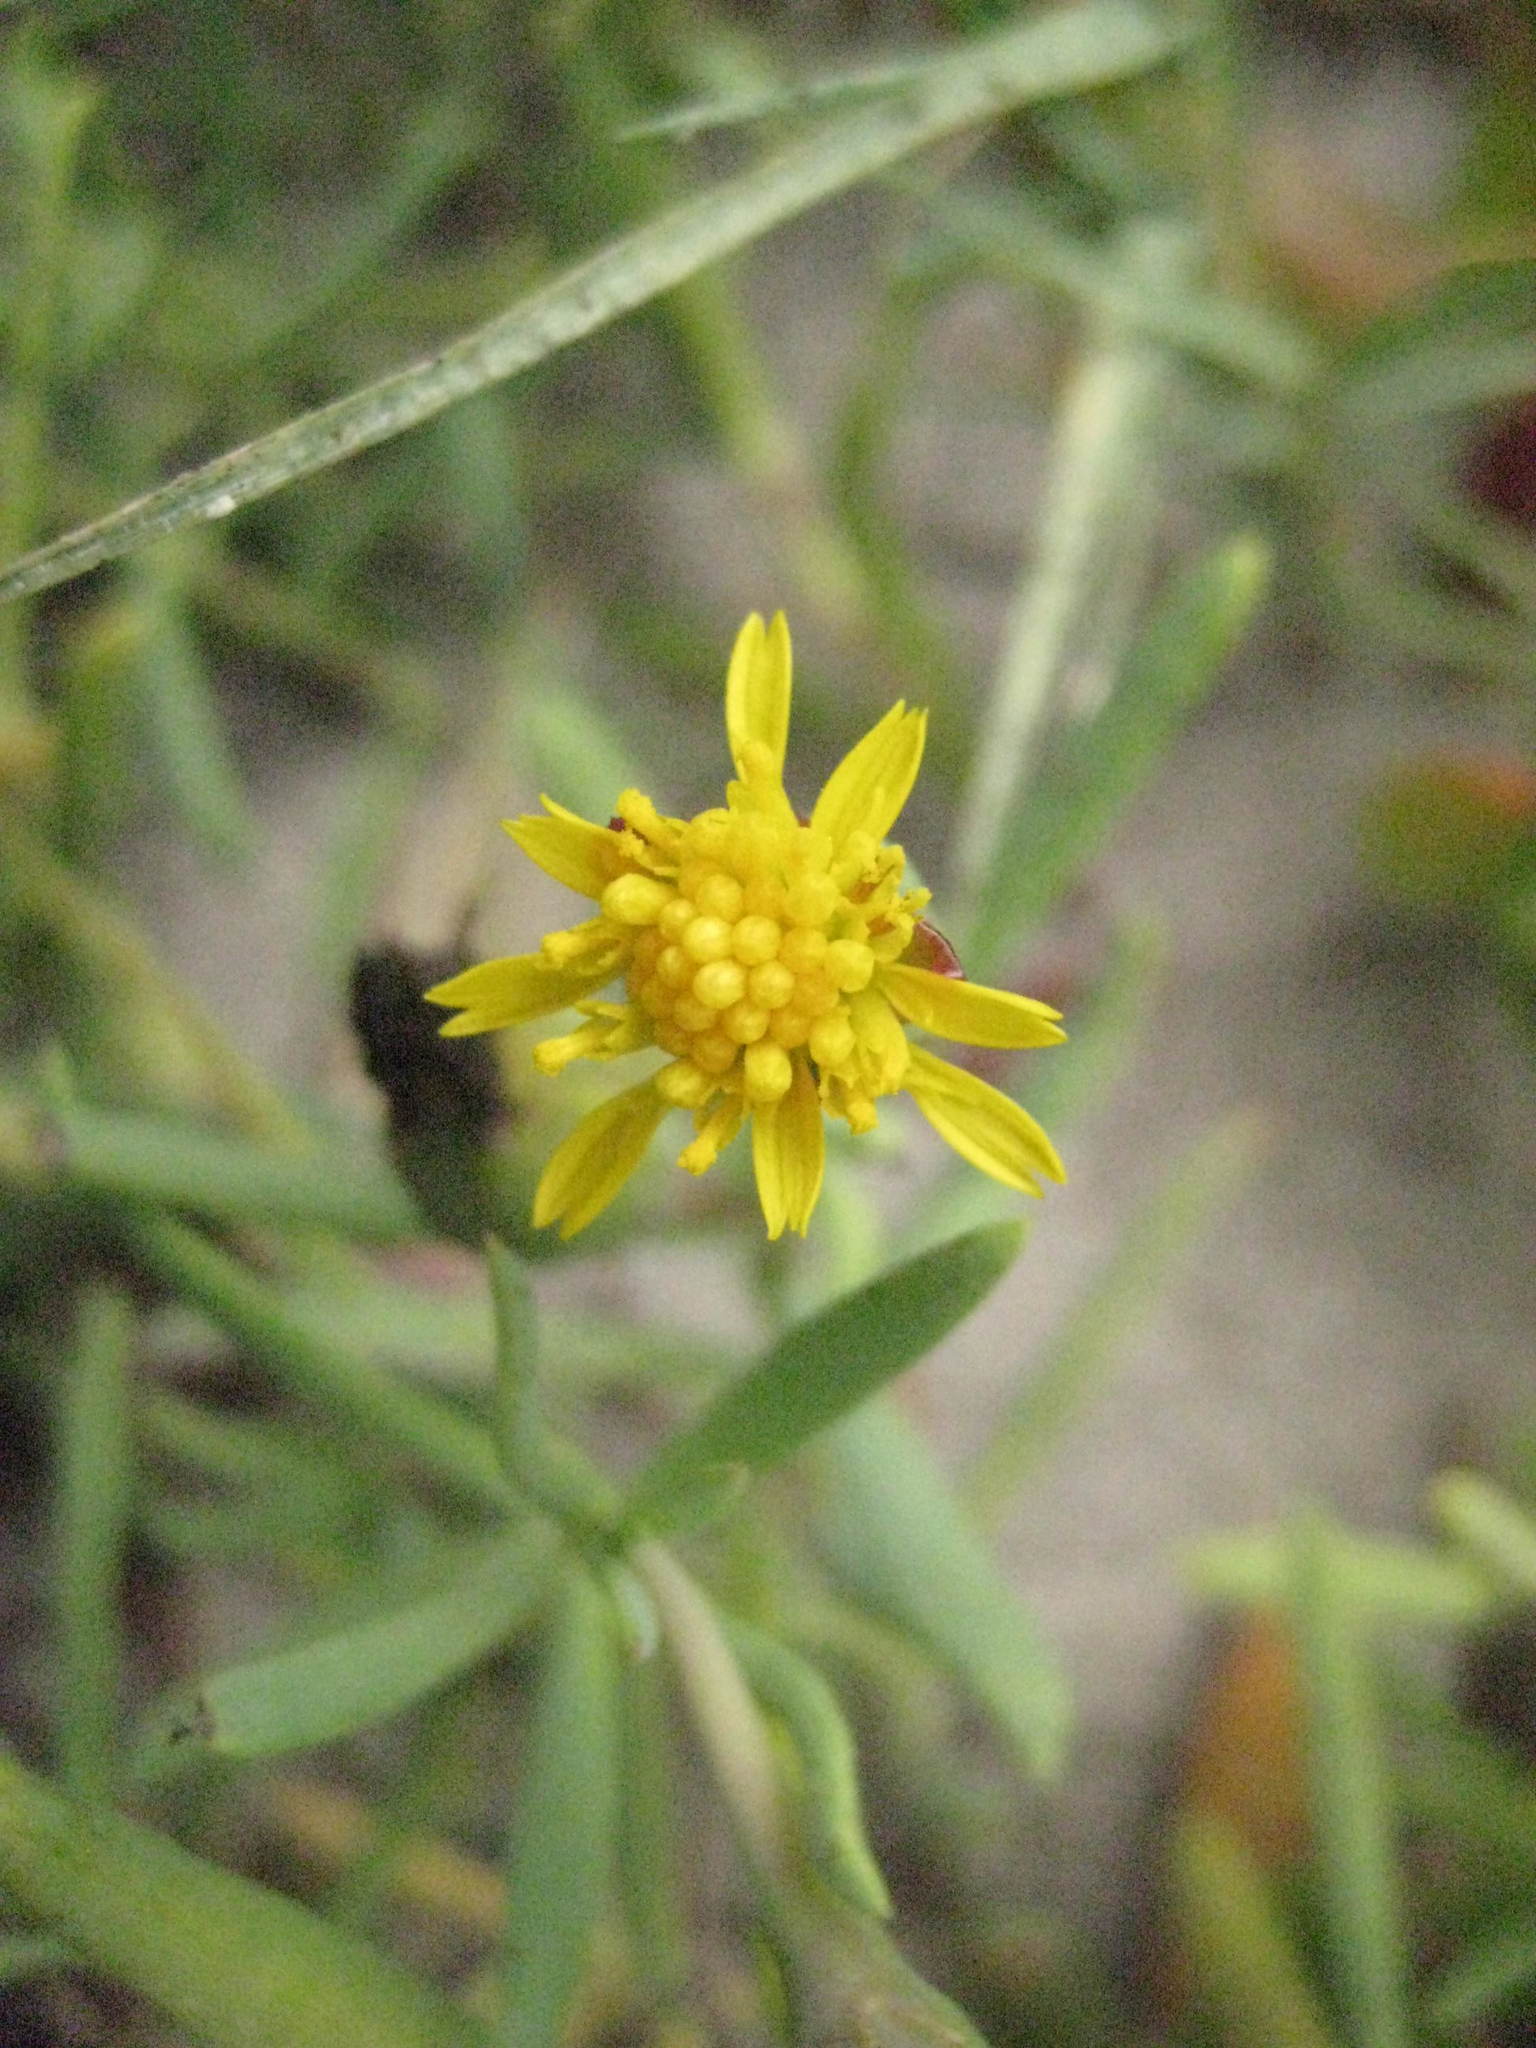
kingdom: Plantae
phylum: Tracheophyta
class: Magnoliopsida
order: Asterales
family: Asteraceae
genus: Jaumea
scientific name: Jaumea carnosa
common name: Fleshy jaumea
